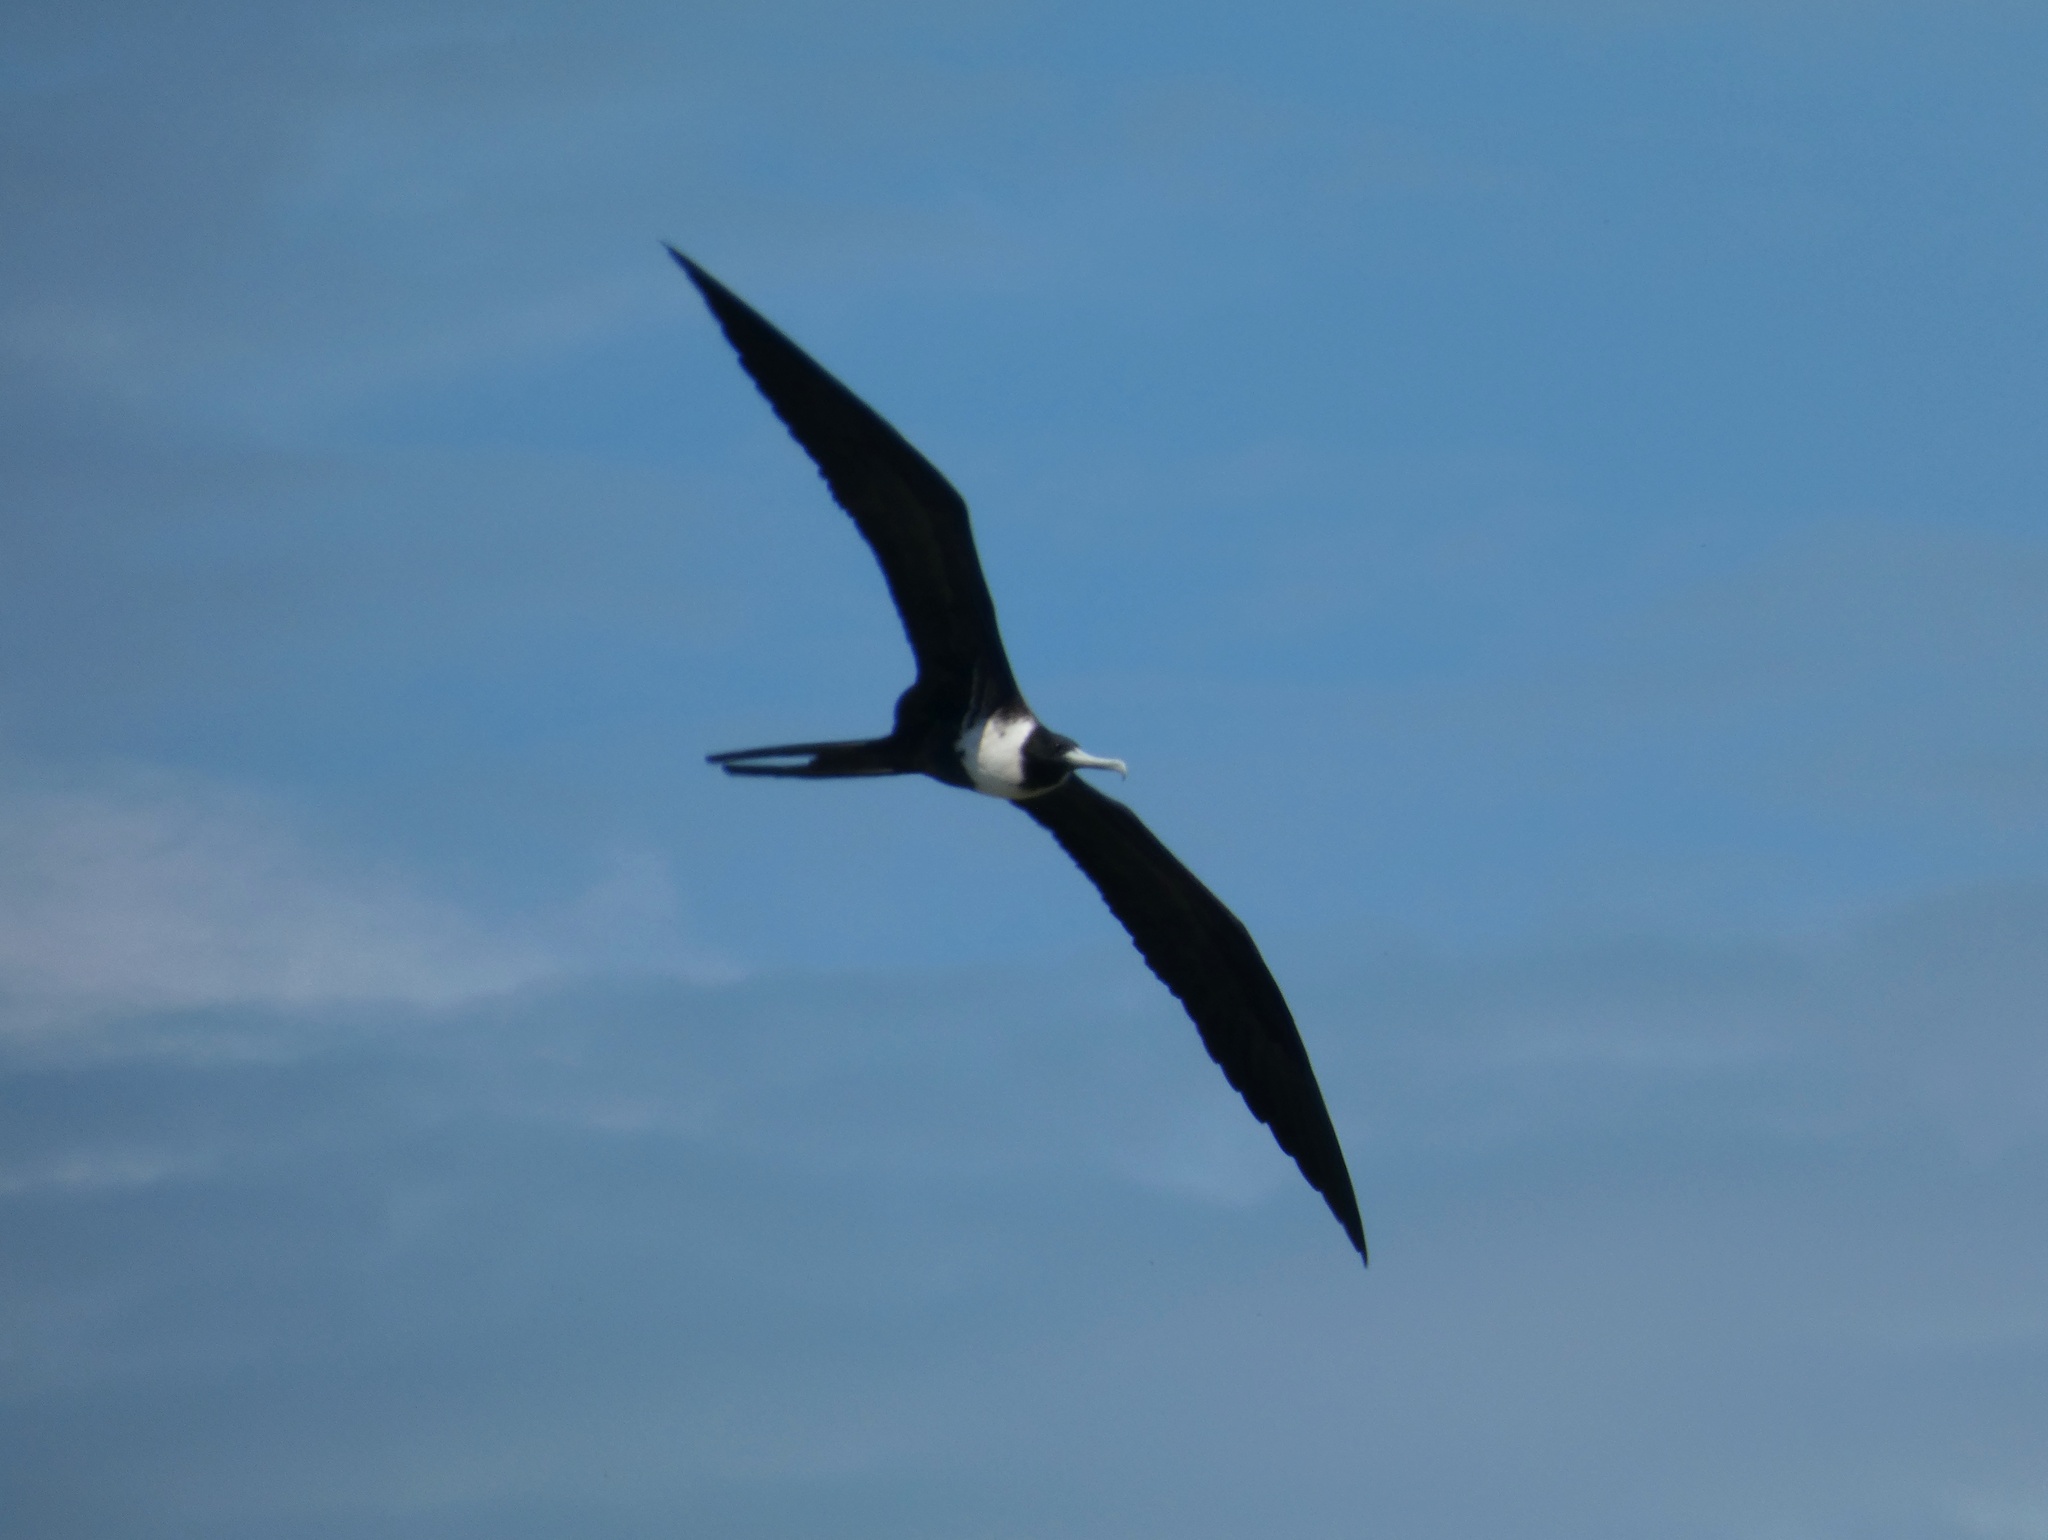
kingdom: Animalia
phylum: Chordata
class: Aves
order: Suliformes
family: Fregatidae
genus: Fregata
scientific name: Fregata magnificens
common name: Magnificent frigatebird
